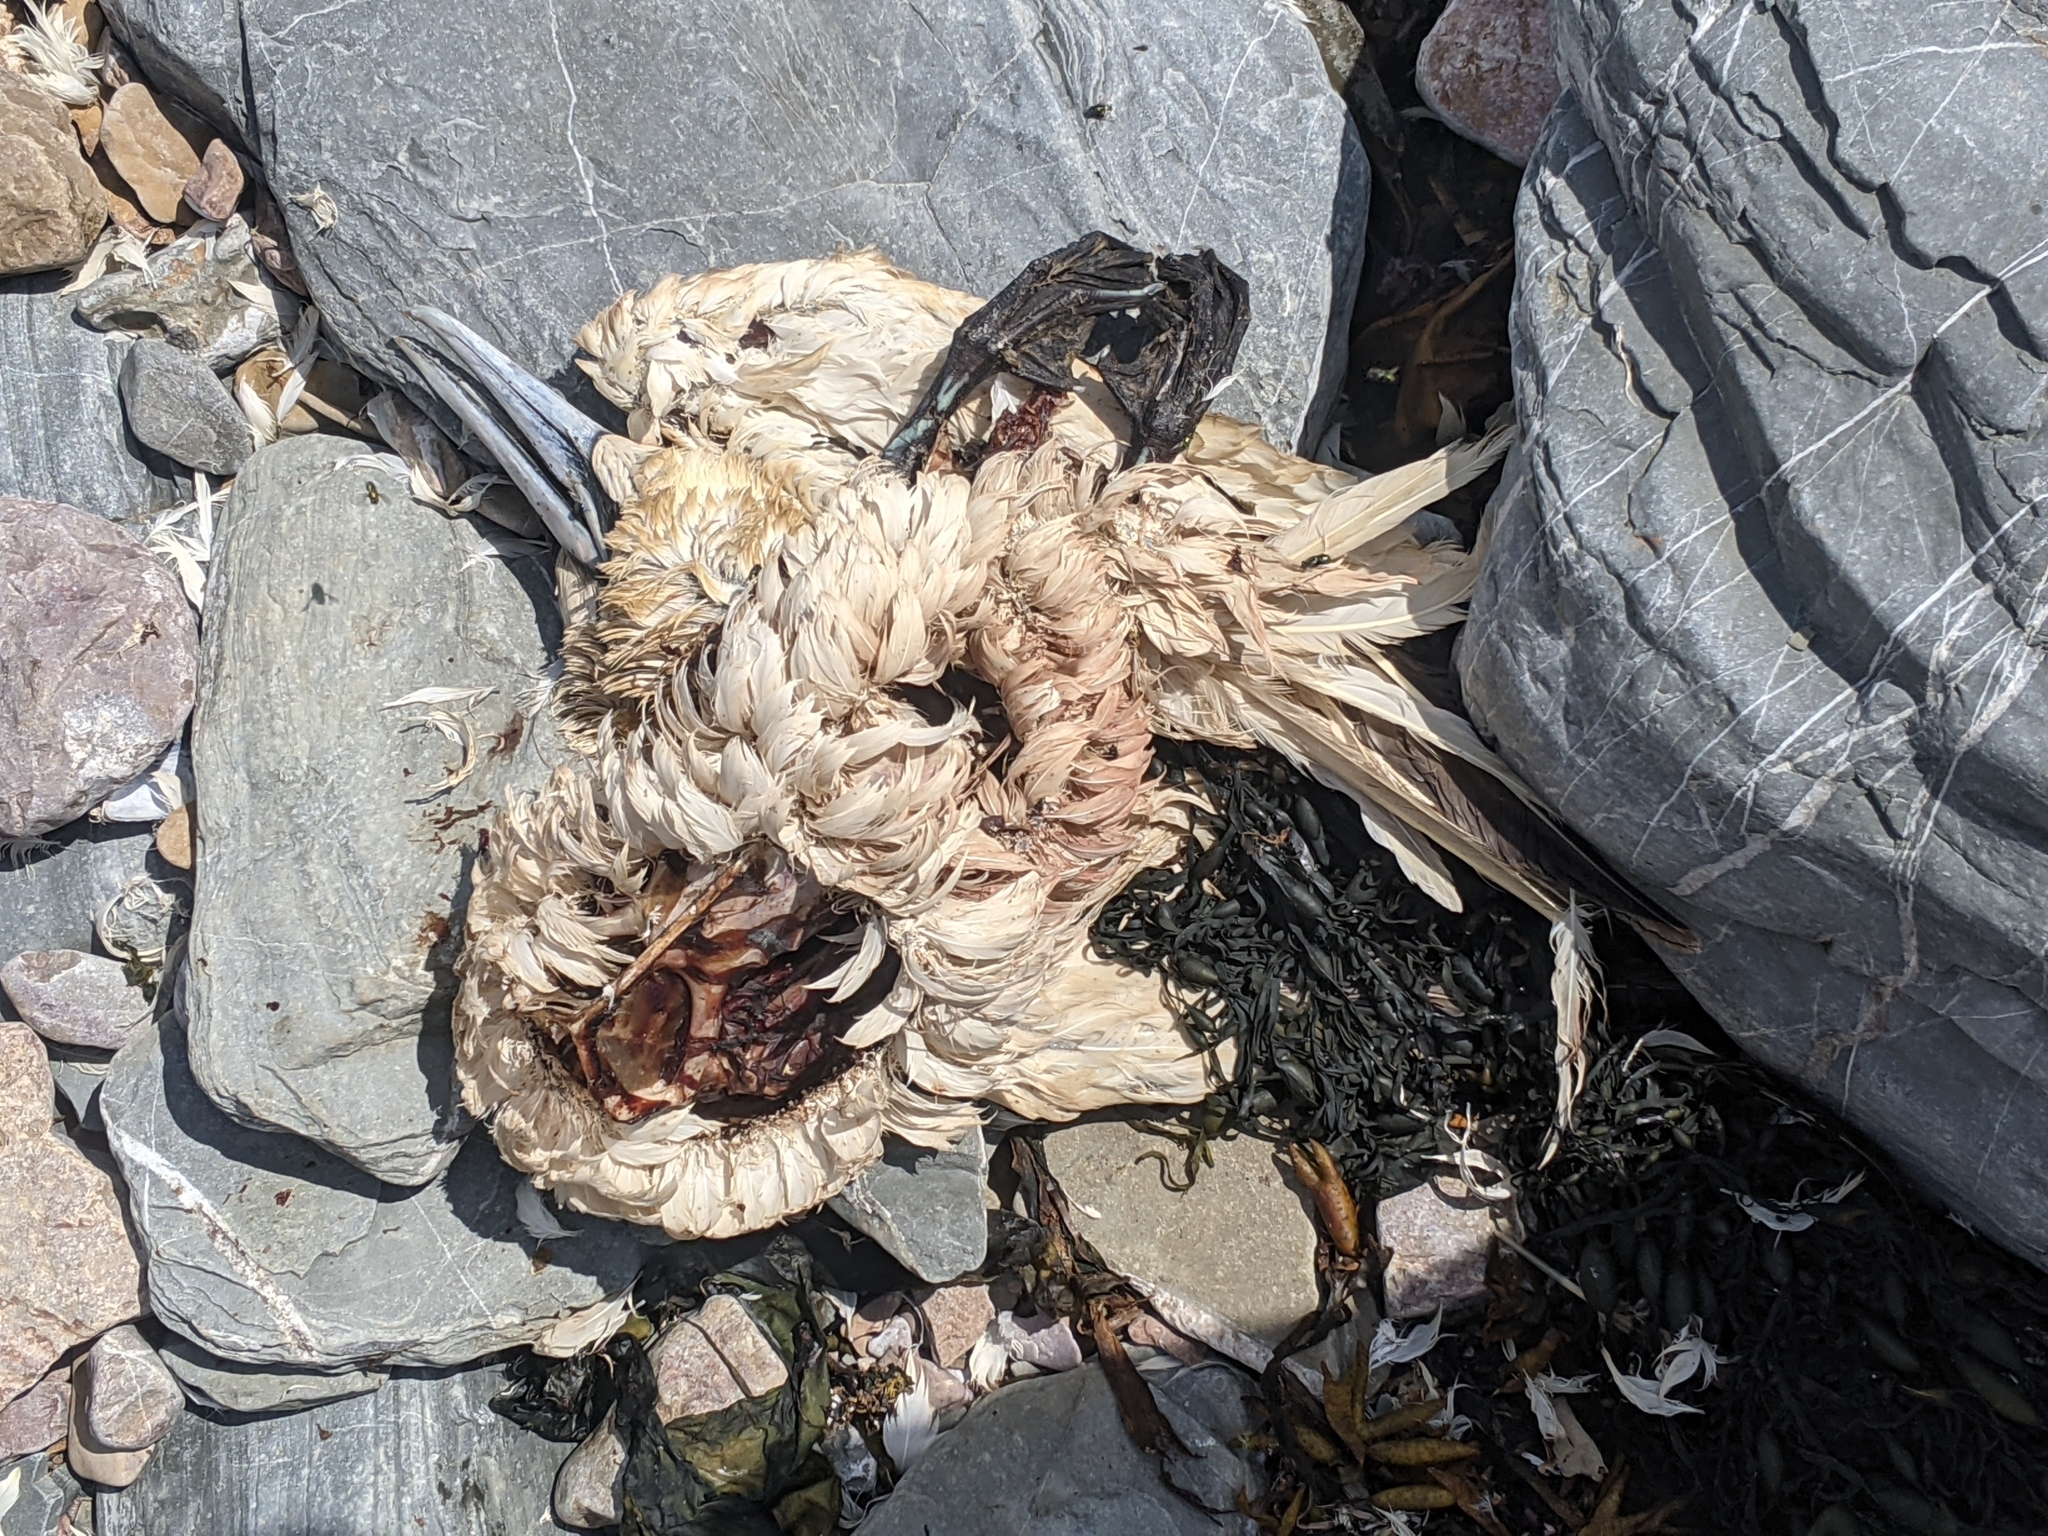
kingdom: Animalia
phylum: Chordata
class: Aves
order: Suliformes
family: Sulidae
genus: Morus
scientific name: Morus bassanus
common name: Northern gannet
